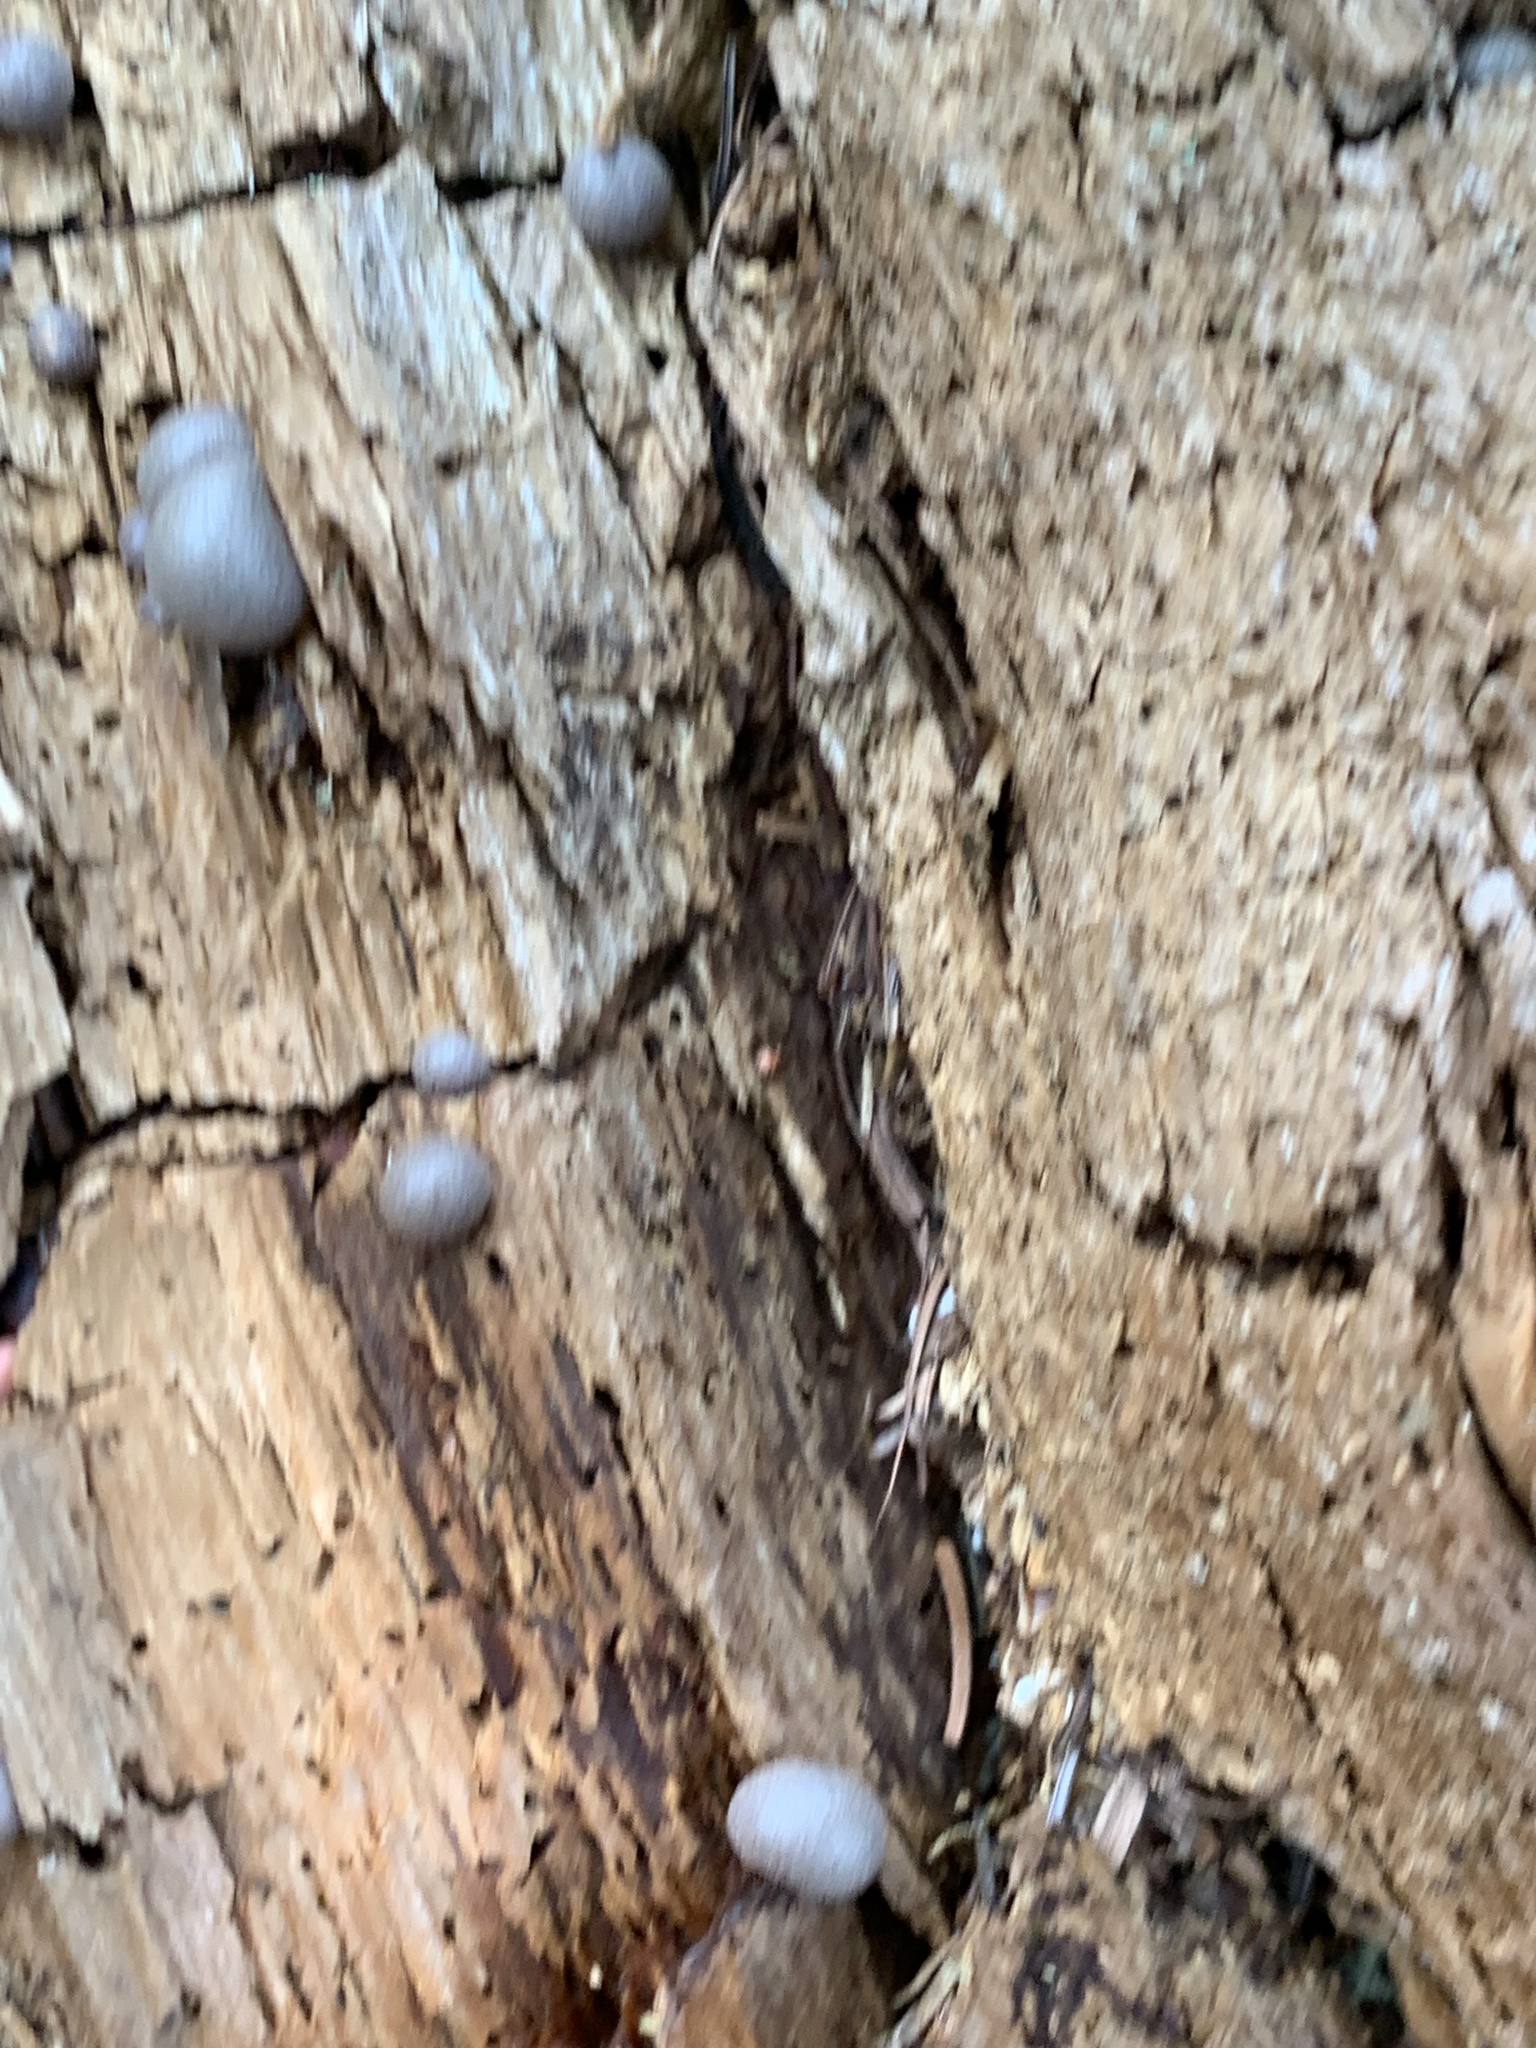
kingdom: Protozoa
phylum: Mycetozoa
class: Myxomycetes
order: Cribrariales
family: Tubiferaceae
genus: Lycogala
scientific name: Lycogala epidendrum
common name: Wolf's milk
